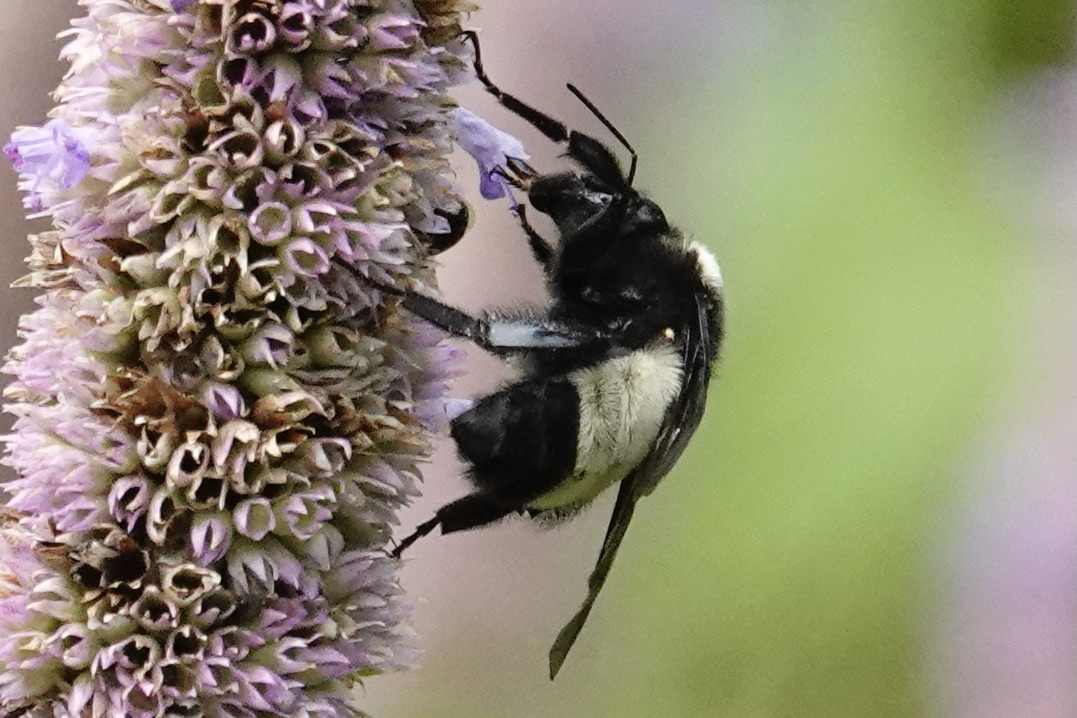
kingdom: Animalia
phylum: Arthropoda
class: Insecta
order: Hymenoptera
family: Apidae
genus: Bombus
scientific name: Bombus pensylvanicus
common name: Bumble bee
